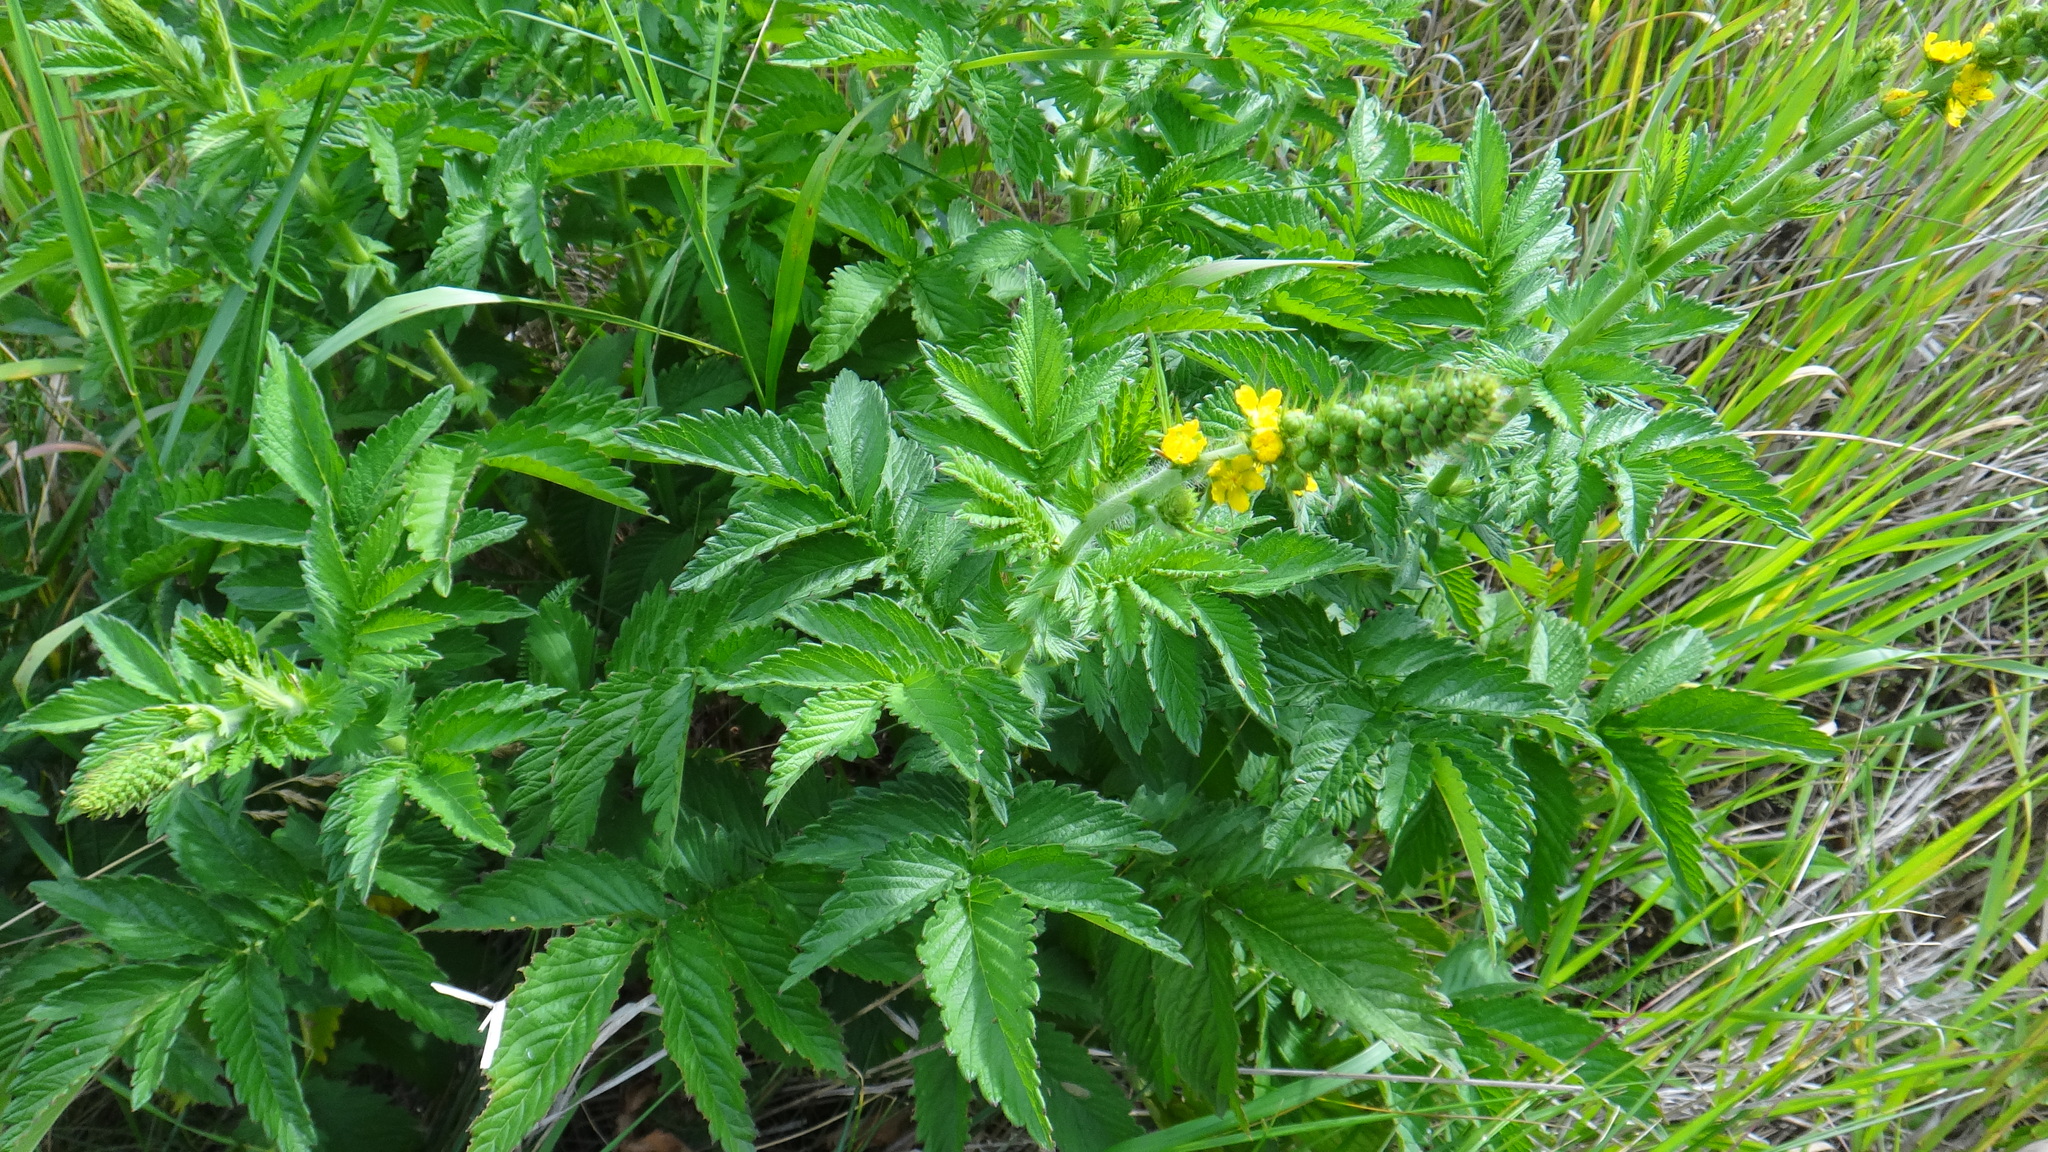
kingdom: Plantae
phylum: Tracheophyta
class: Magnoliopsida
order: Rosales
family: Rosaceae
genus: Agrimonia
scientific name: Agrimonia eupatoria
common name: Agrimony
